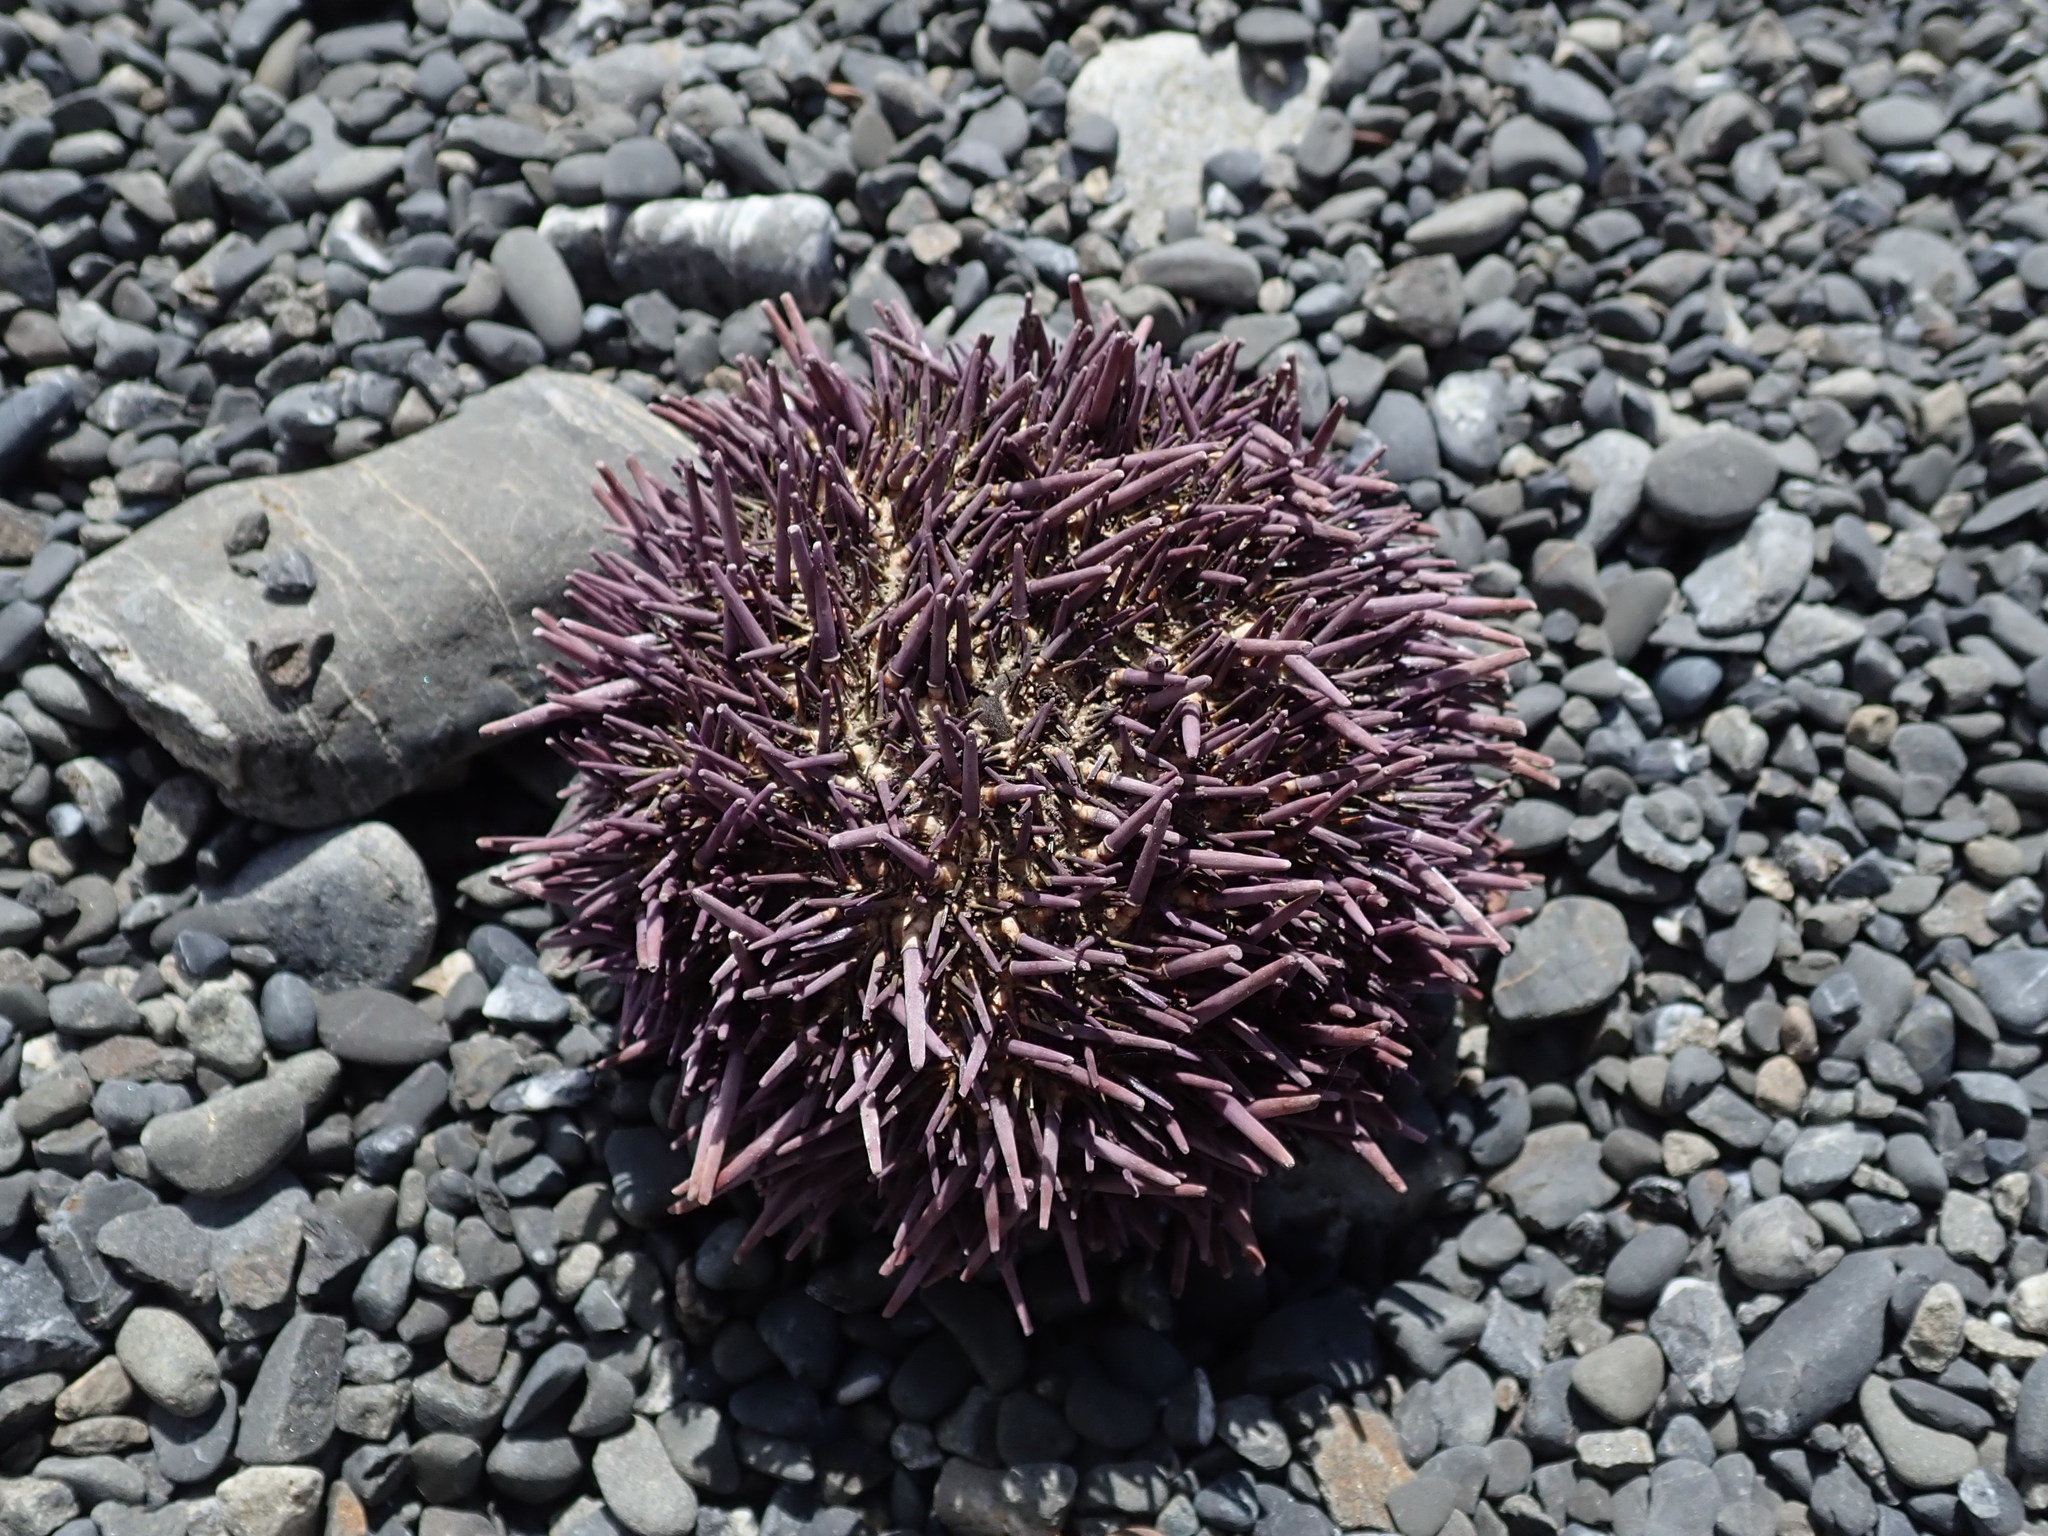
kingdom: Animalia
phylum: Echinodermata
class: Echinoidea
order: Camarodonta
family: Strongylocentrotidae
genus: Strongylocentrotus
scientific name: Strongylocentrotus purpuratus
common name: Purple sea urchin
